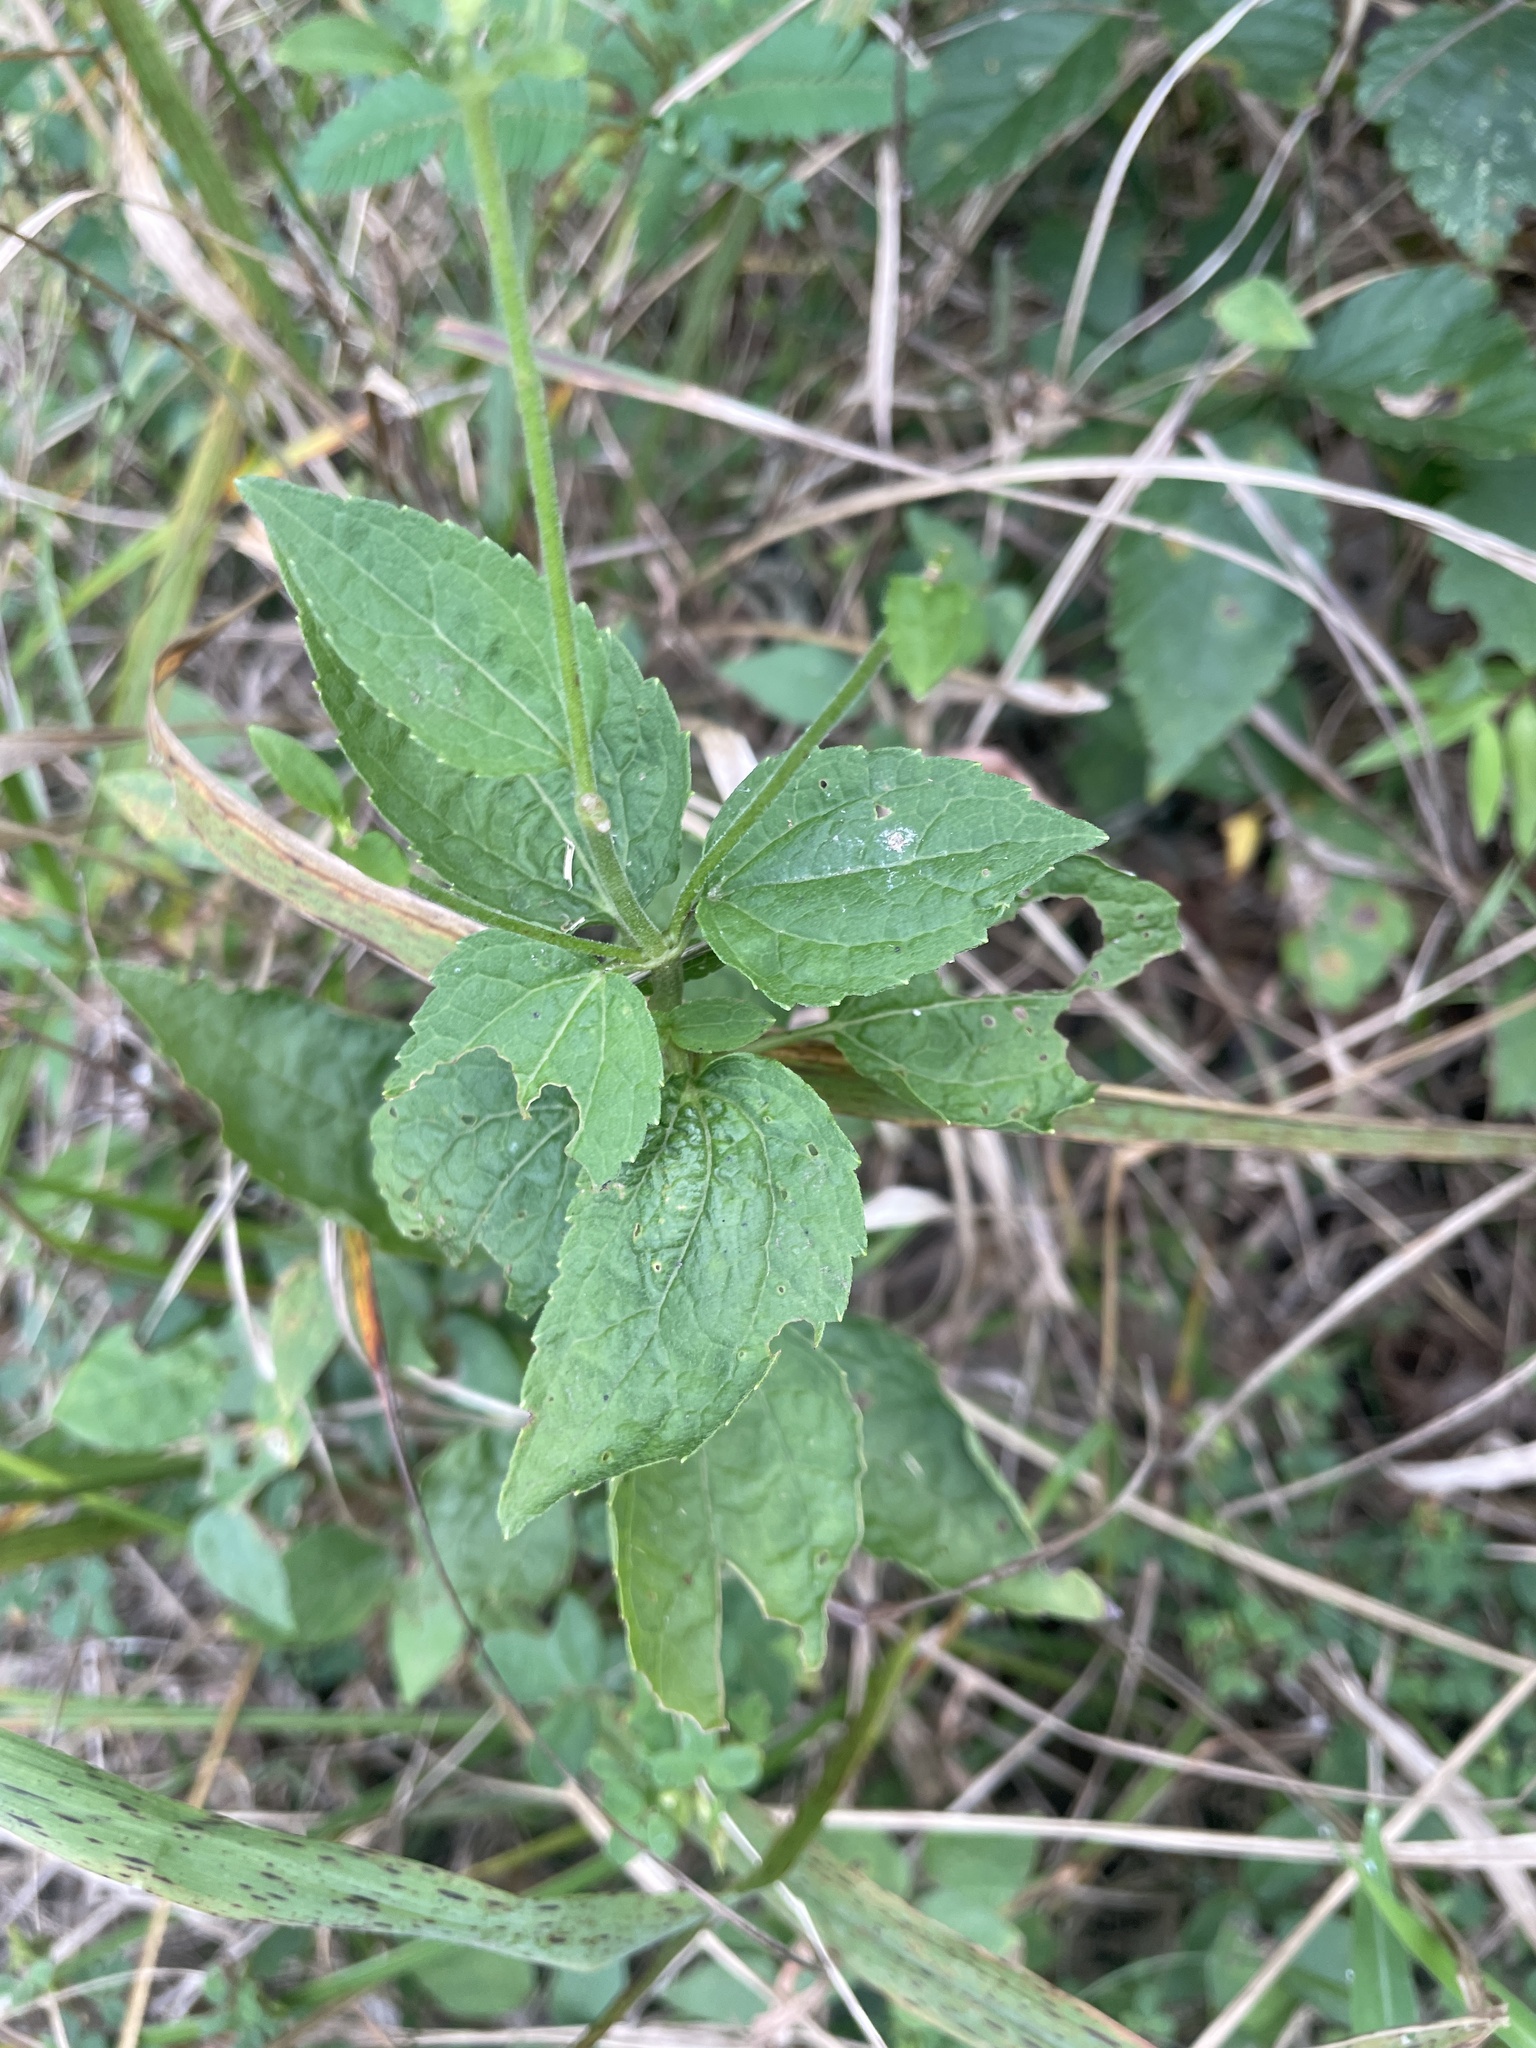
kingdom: Plantae
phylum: Tracheophyta
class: Magnoliopsida
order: Asterales
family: Asteraceae
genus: Ageratina
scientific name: Ageratina aromatica
